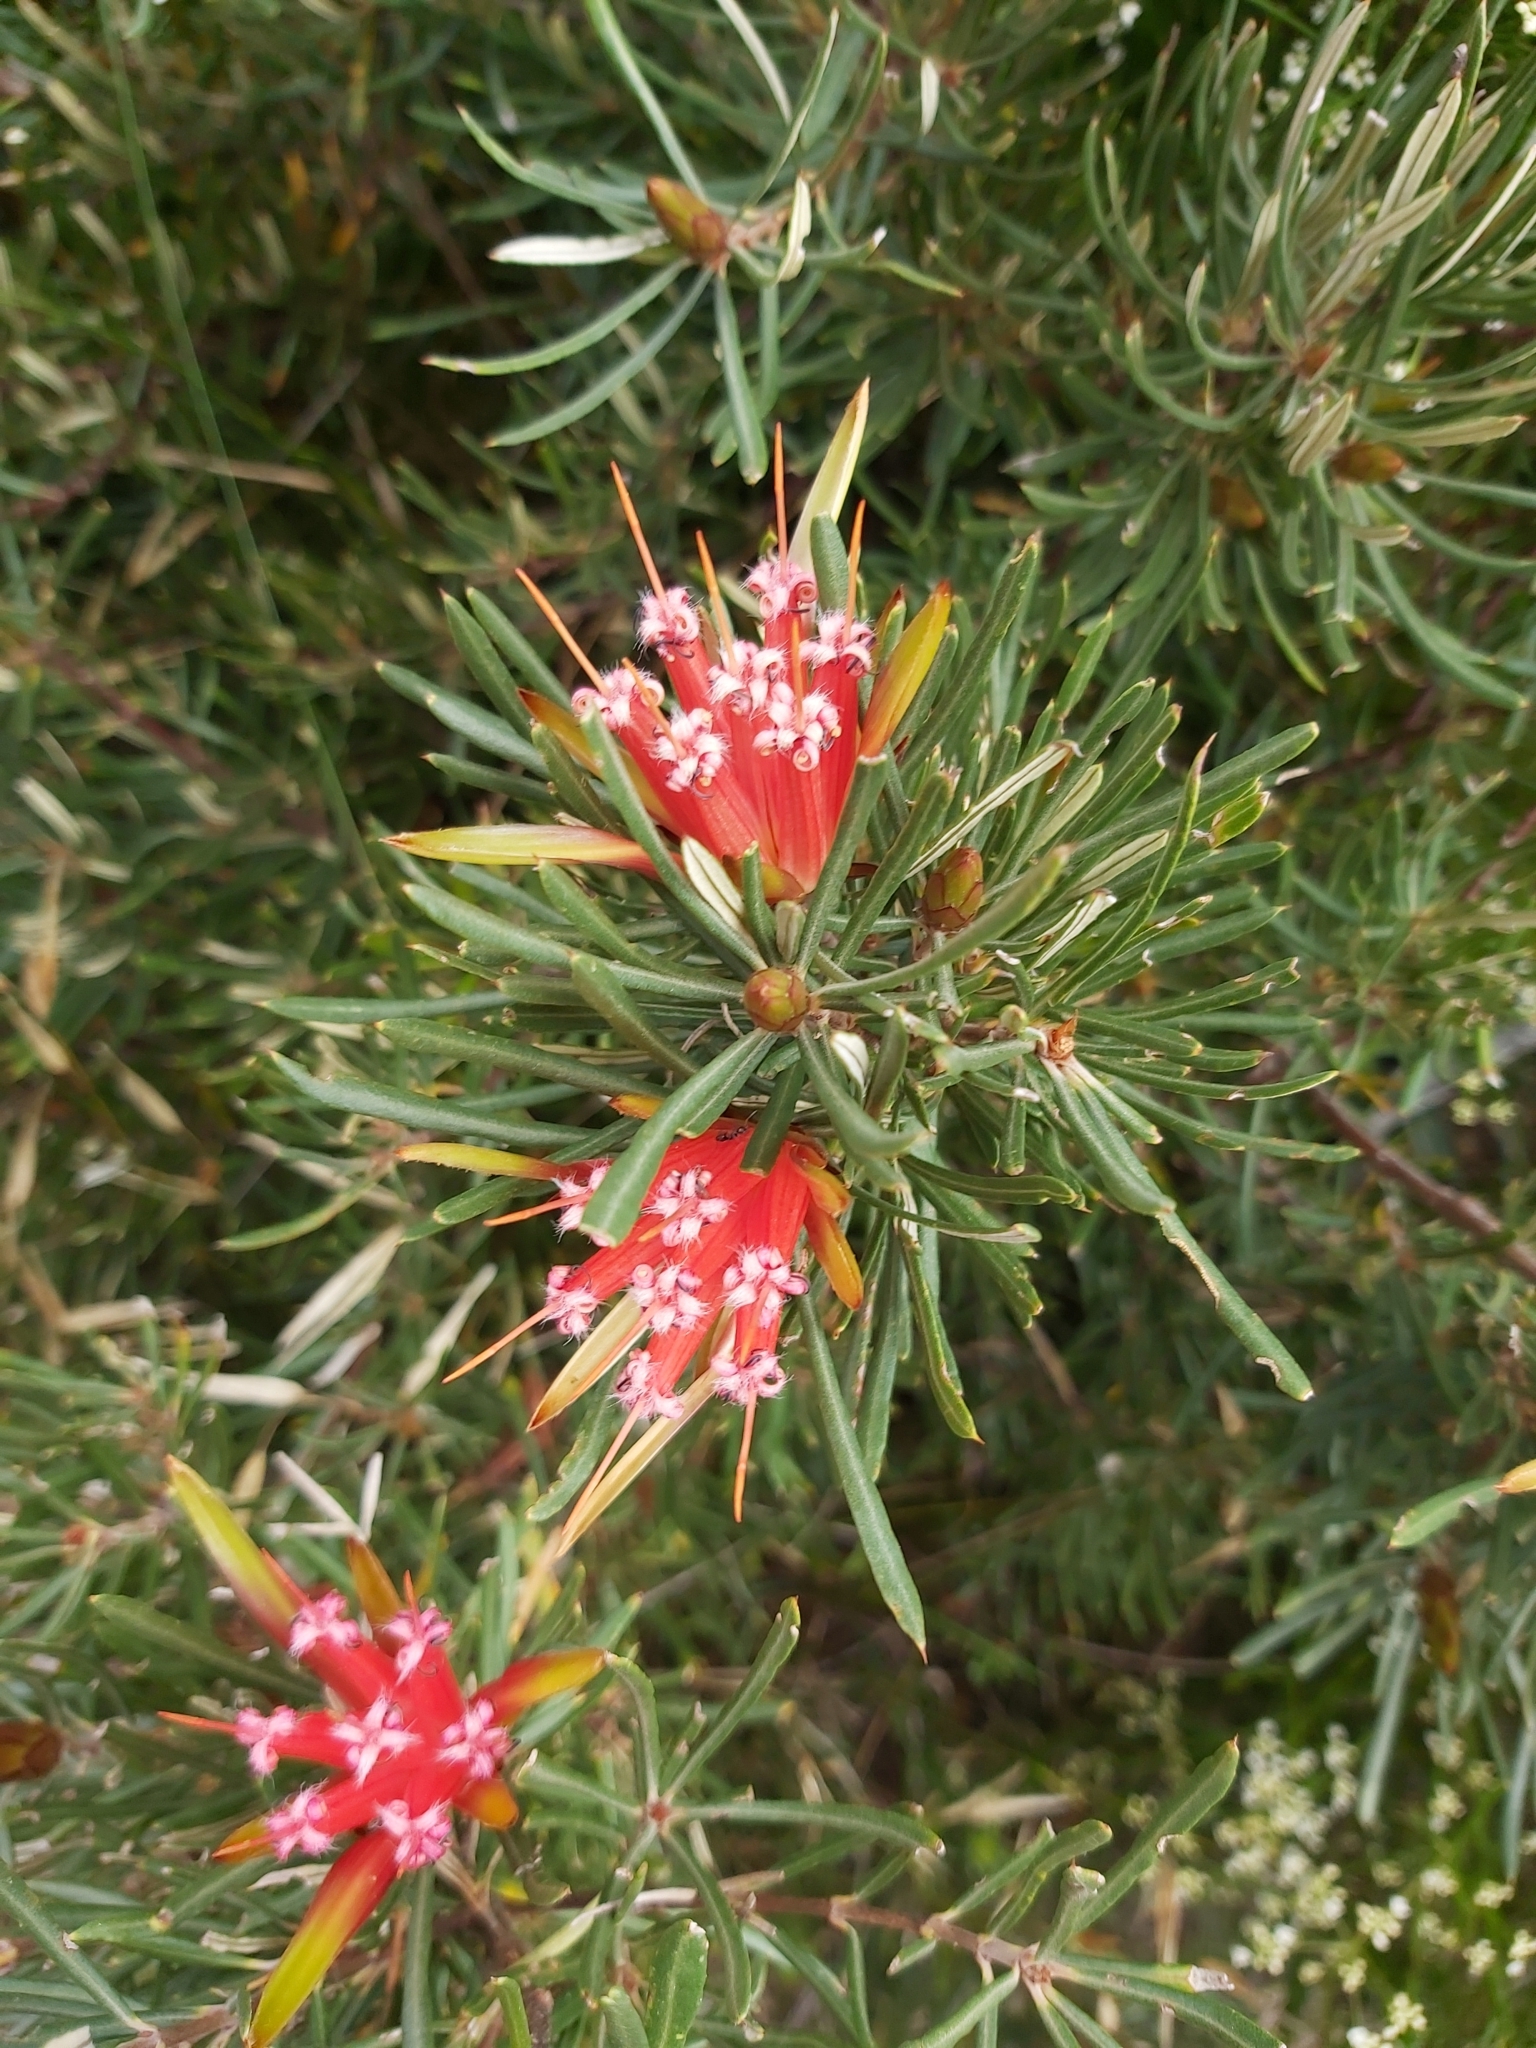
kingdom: Plantae
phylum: Tracheophyta
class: Magnoliopsida
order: Proteales
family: Proteaceae
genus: Lambertia
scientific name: Lambertia formosa
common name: Mountain-devil
